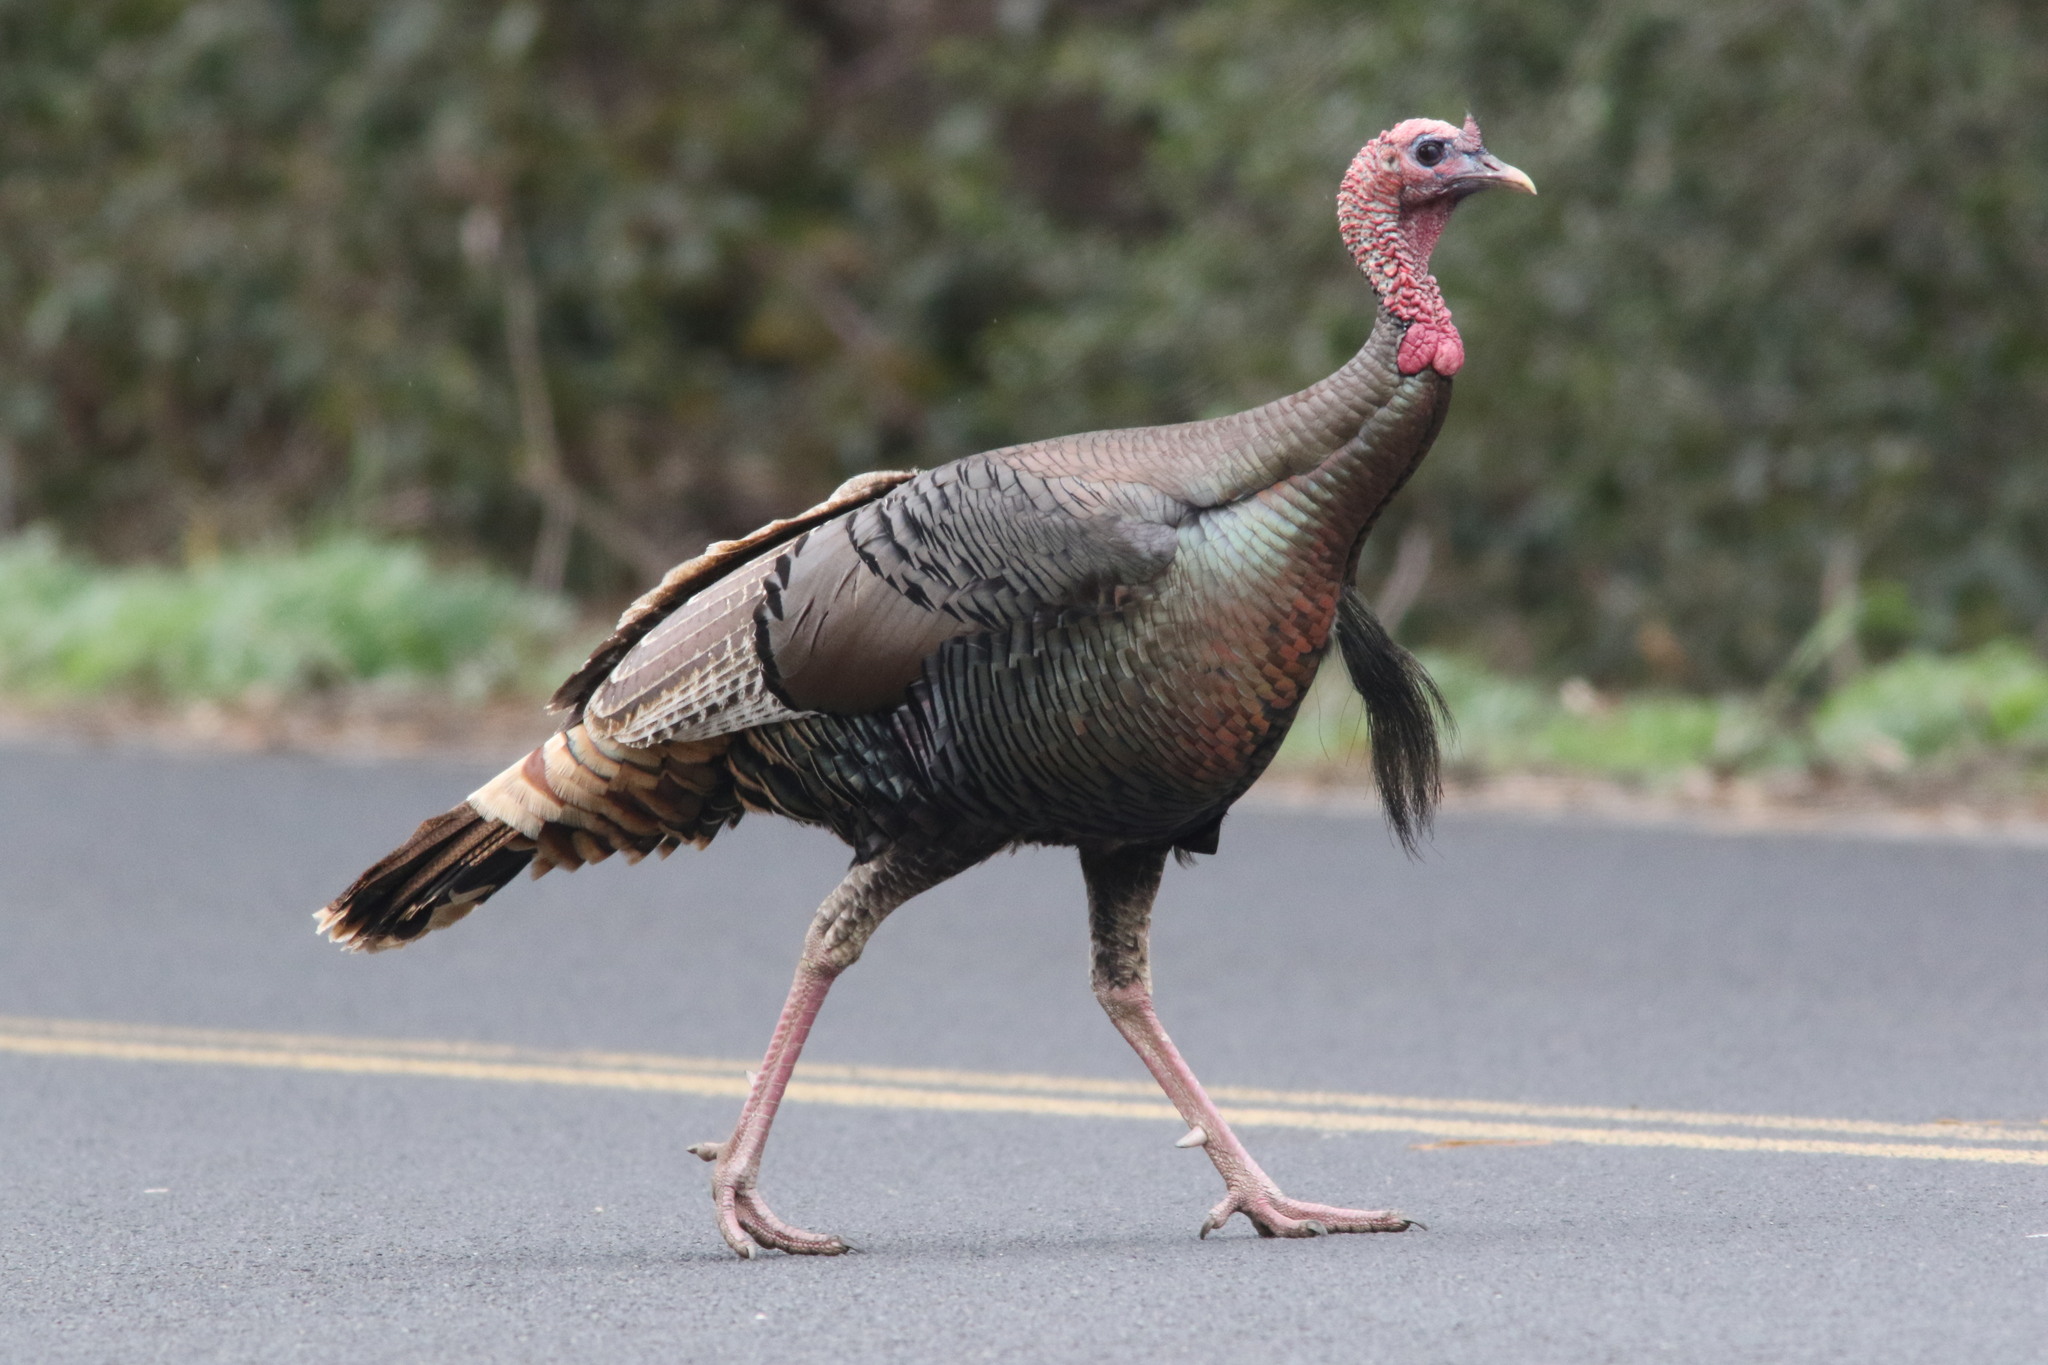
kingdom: Animalia
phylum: Chordata
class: Aves
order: Galliformes
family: Phasianidae
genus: Meleagris
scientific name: Meleagris gallopavo
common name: Wild turkey
